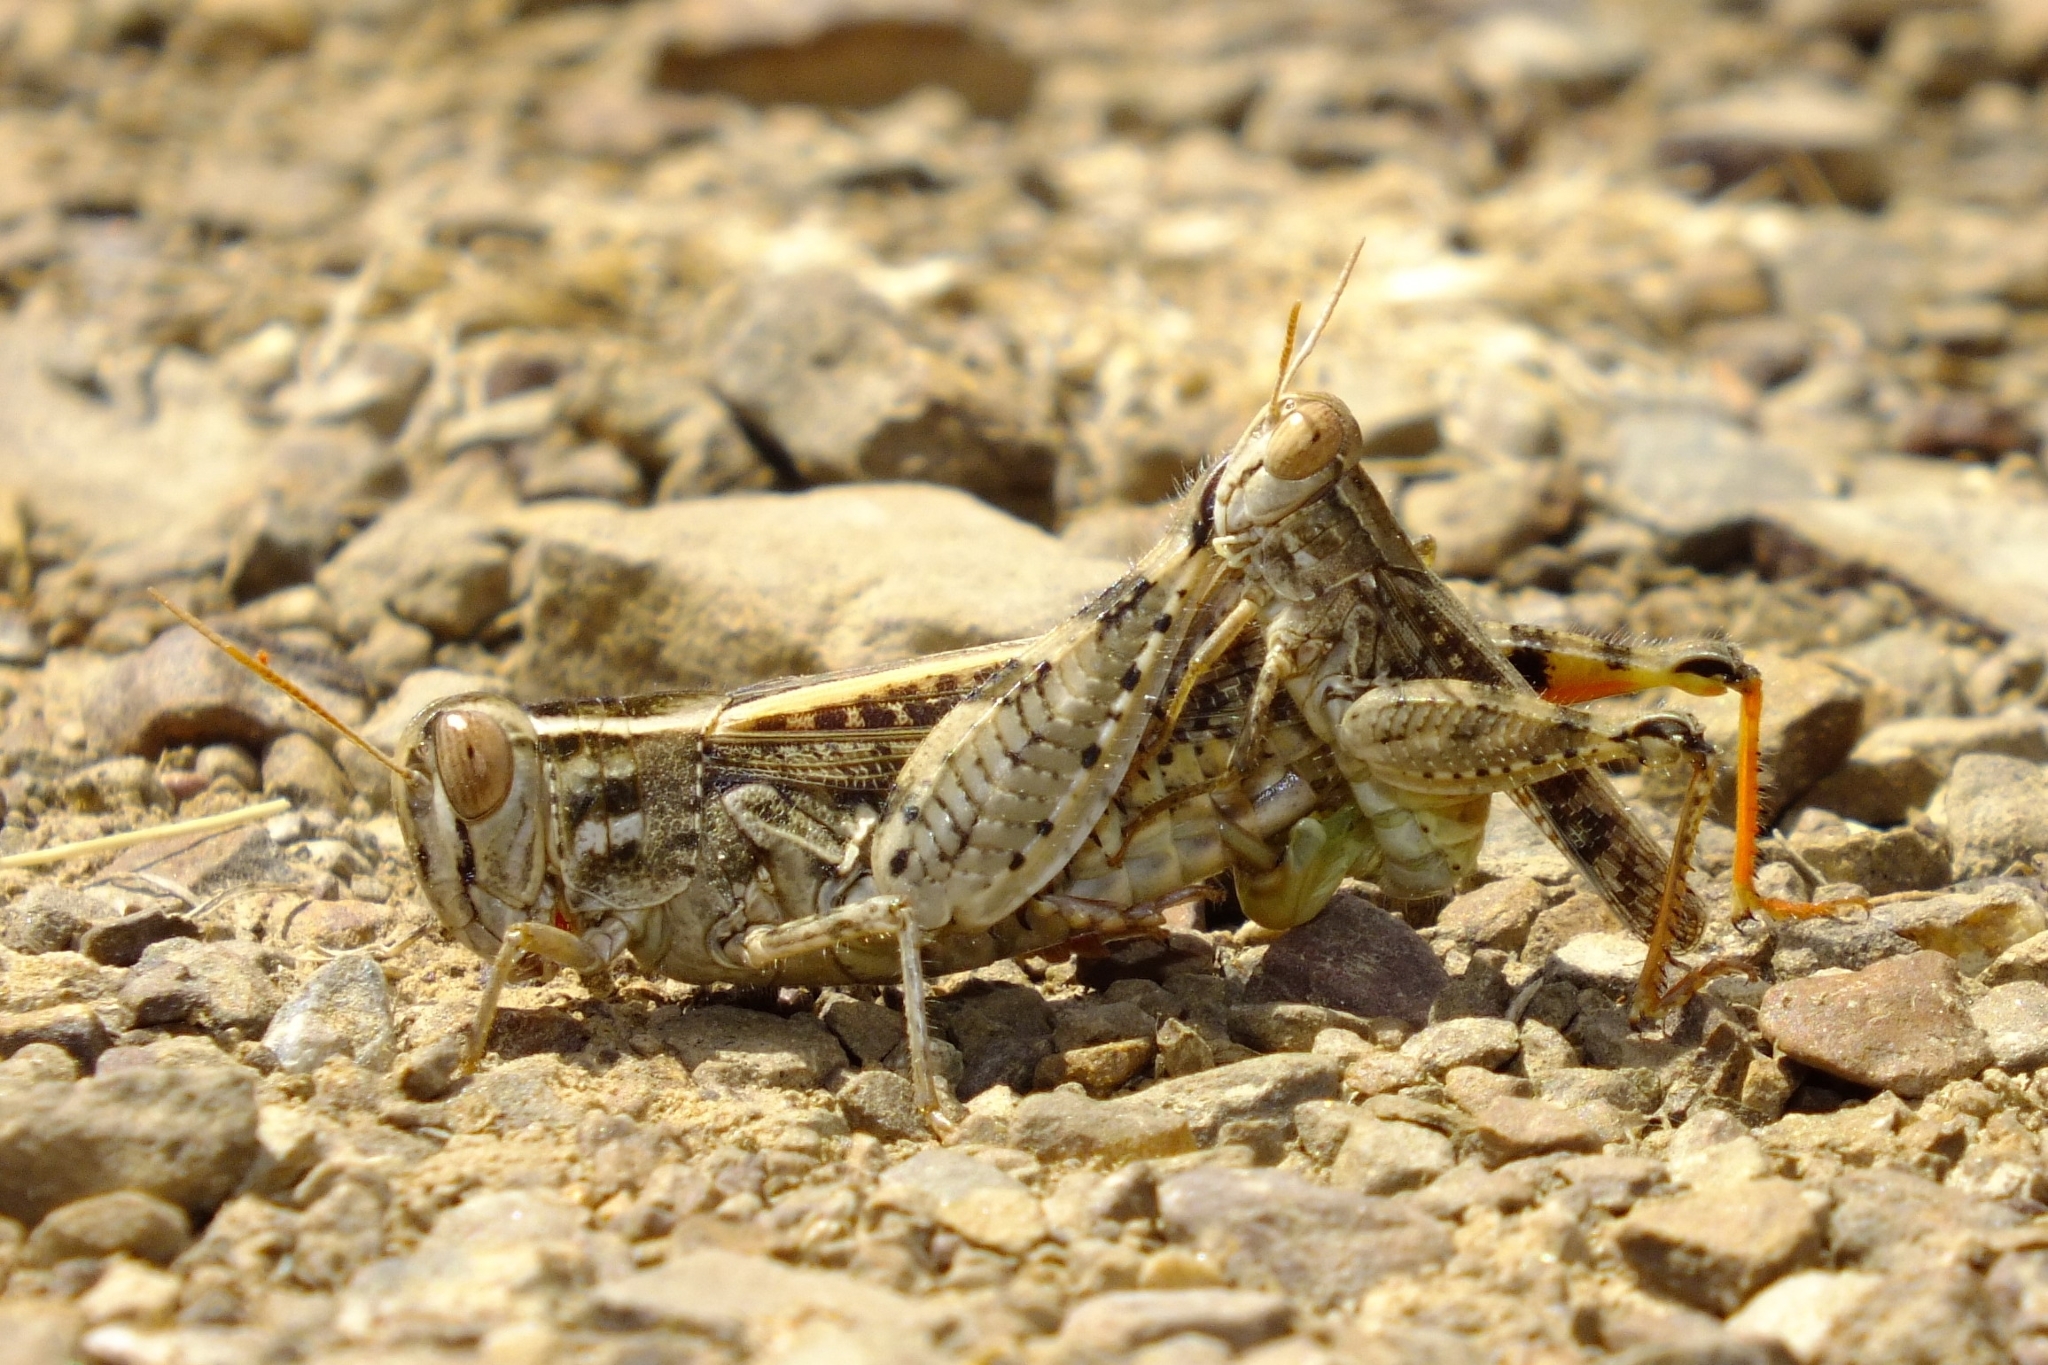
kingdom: Animalia
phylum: Arthropoda
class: Insecta
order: Orthoptera
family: Acrididae
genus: Calliptamus
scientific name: Calliptamus barbarus
